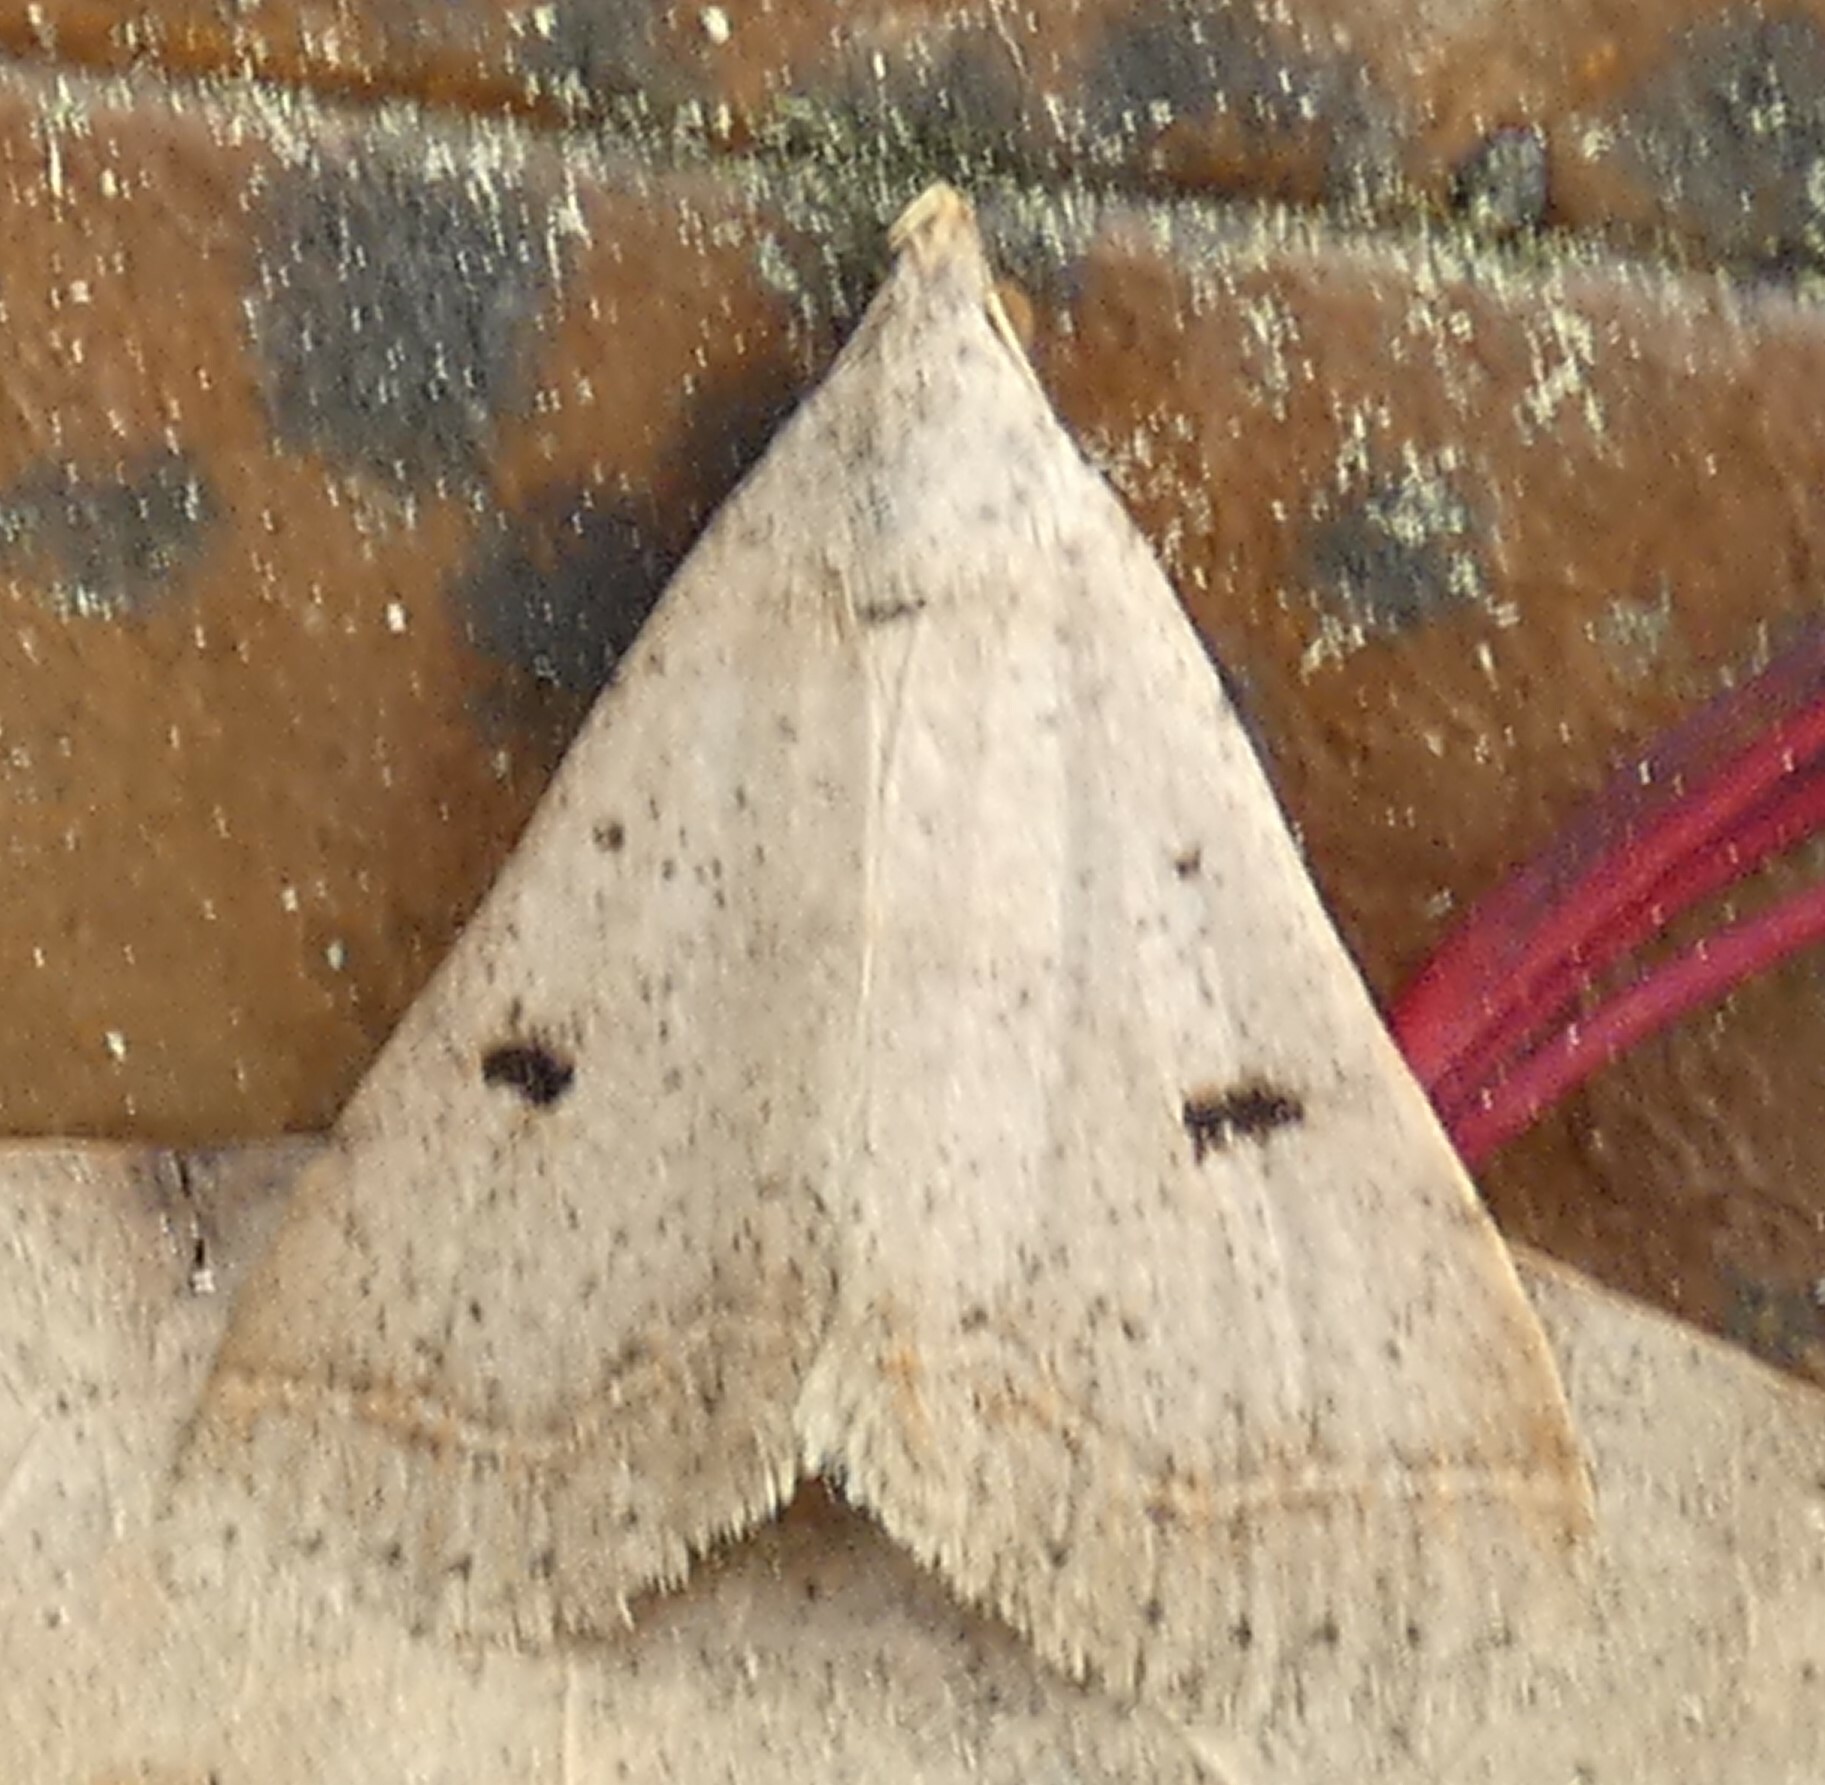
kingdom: Animalia
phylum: Arthropoda
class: Insecta
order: Lepidoptera
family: Erebidae
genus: Bleptina
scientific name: Bleptina caradrinalis
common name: Bent-winged owlet
